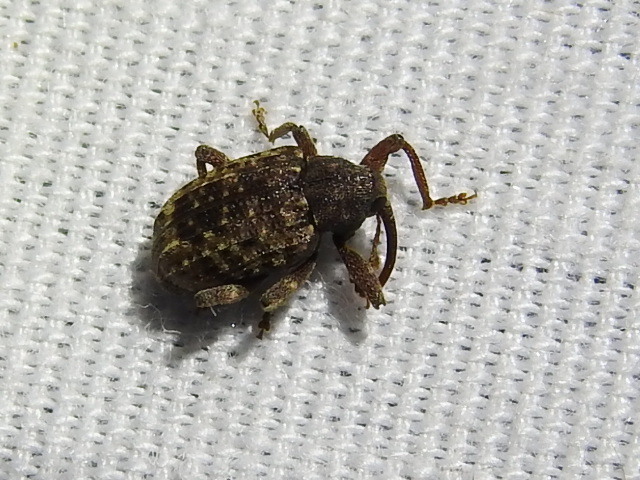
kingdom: Animalia
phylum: Arthropoda
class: Insecta
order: Coleoptera
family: Curculionidae
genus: Conotrachelus
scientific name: Conotrachelus naso
